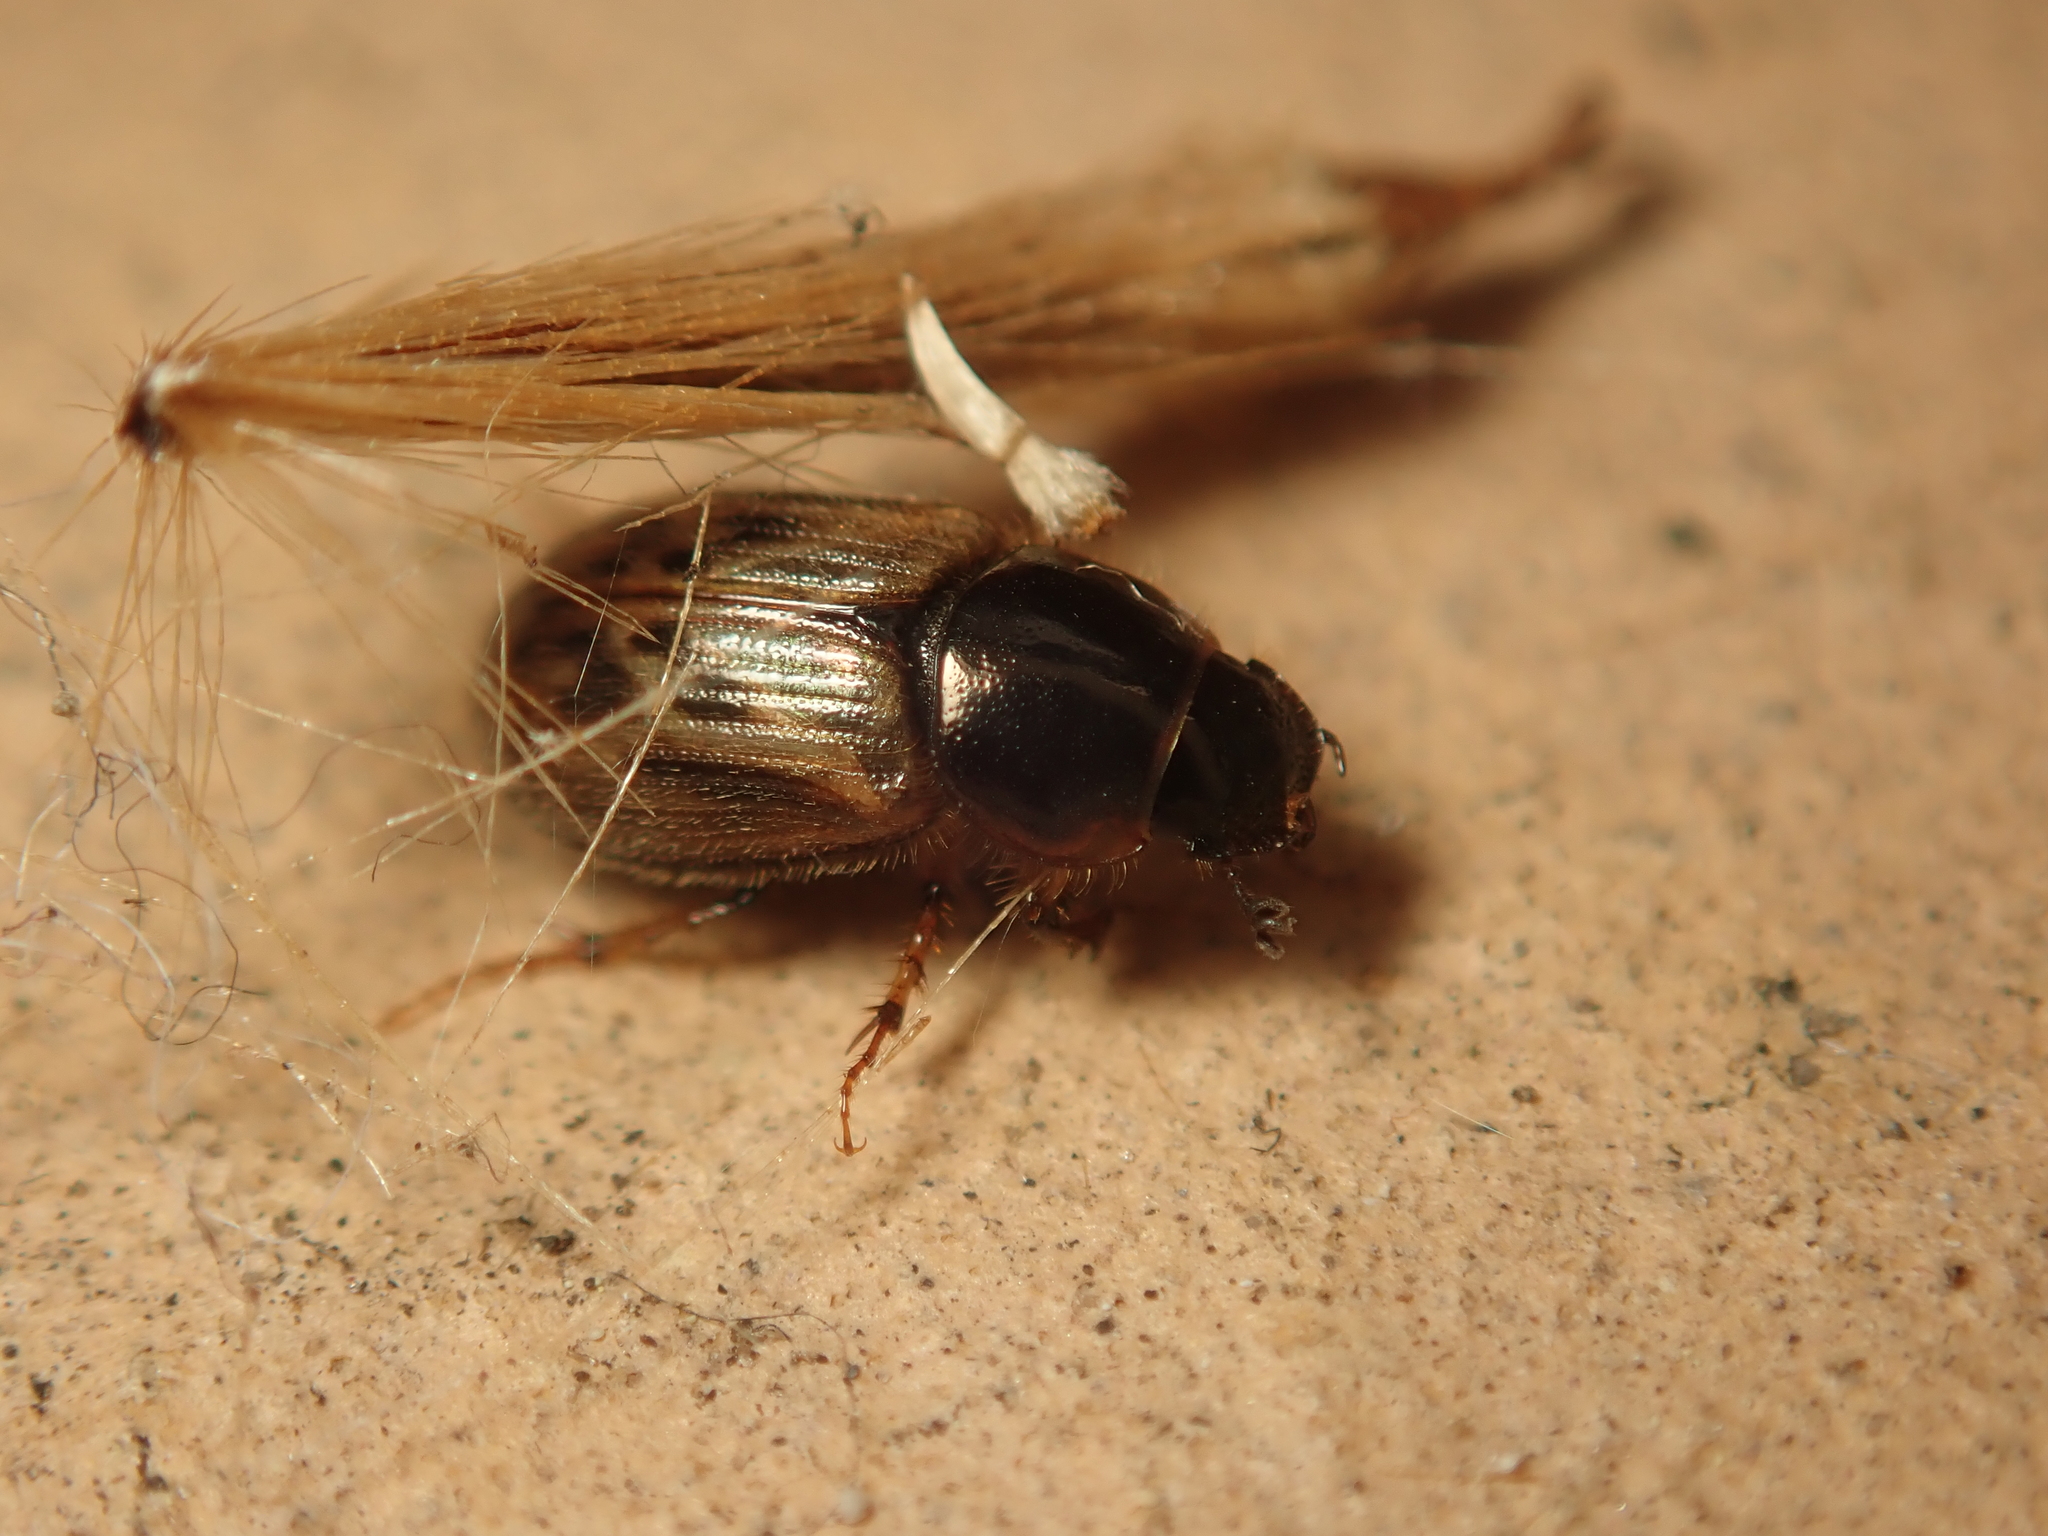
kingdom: Animalia
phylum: Arthropoda
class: Insecta
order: Coleoptera
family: Scarabaeidae
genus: Nimbus
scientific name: Nimbus contaminatus
